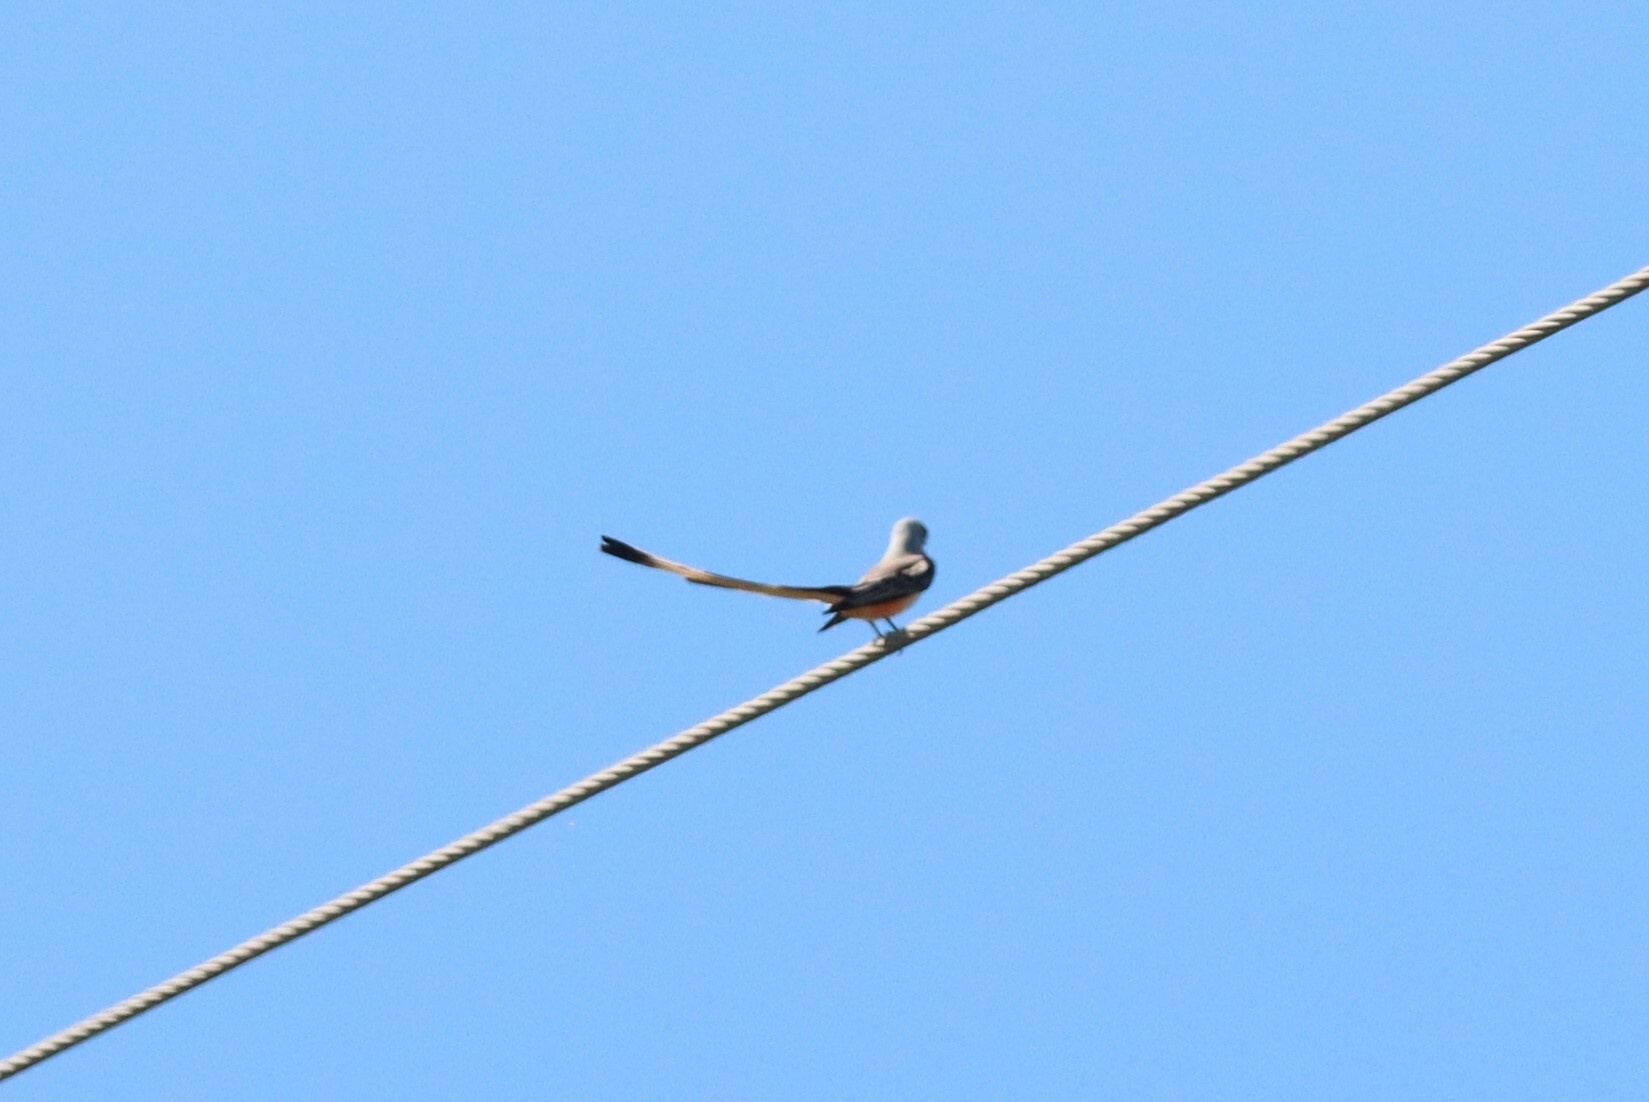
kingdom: Animalia
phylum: Chordata
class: Aves
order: Passeriformes
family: Tyrannidae
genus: Tyrannus
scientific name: Tyrannus forficatus
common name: Scissor-tailed flycatcher
